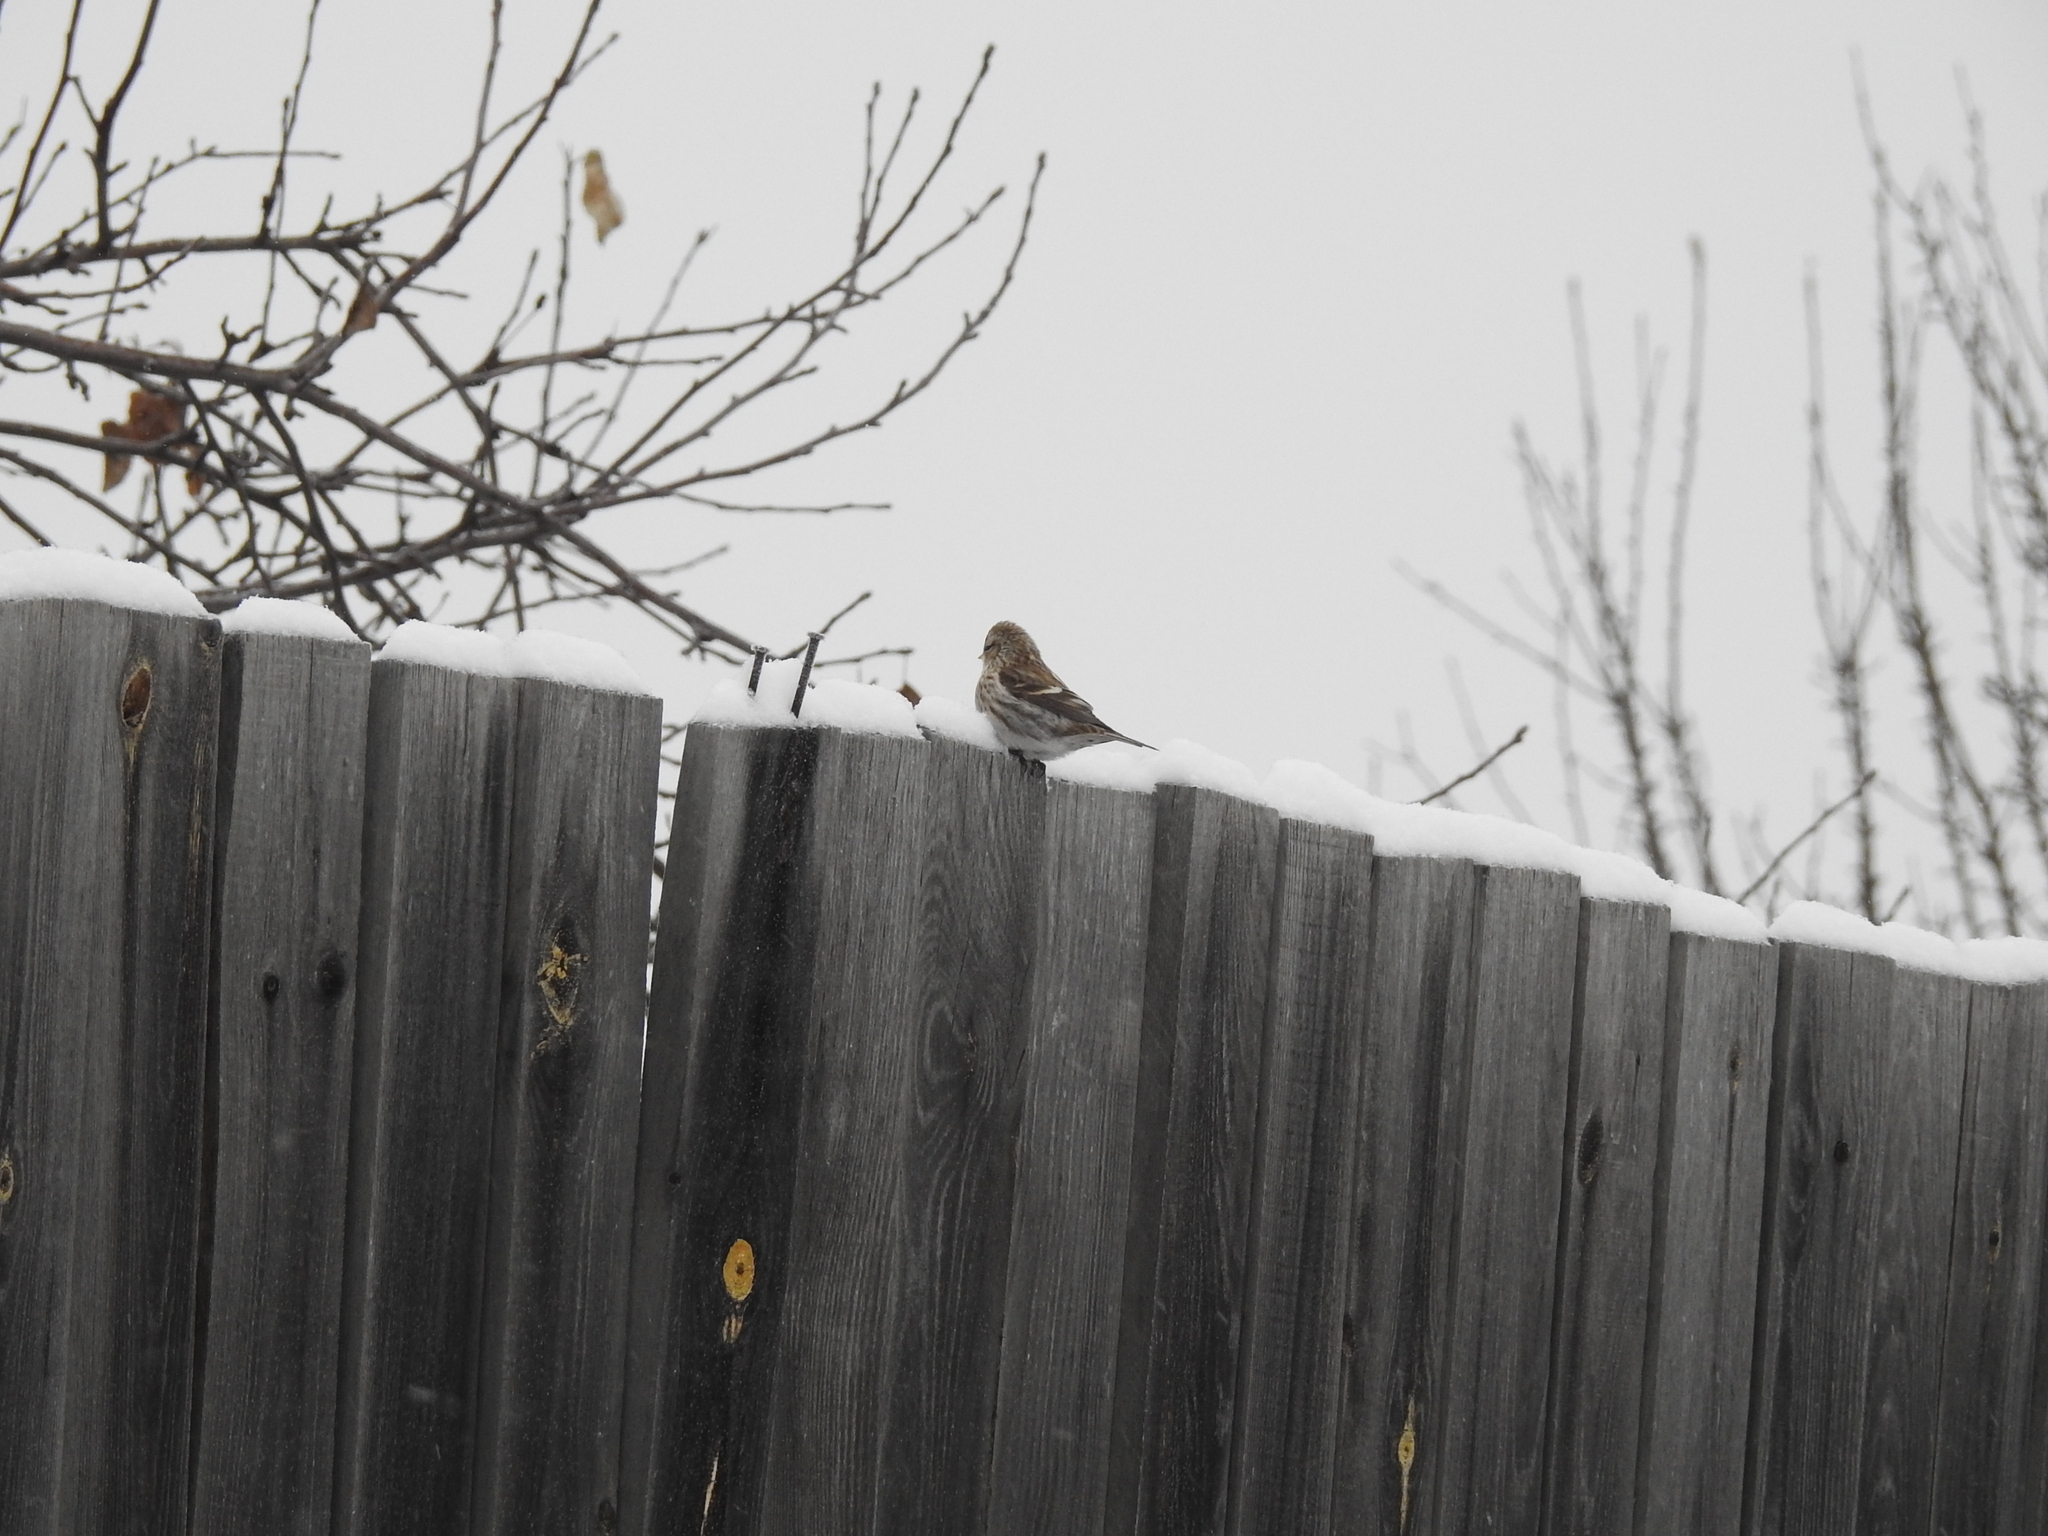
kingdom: Animalia
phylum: Chordata
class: Aves
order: Passeriformes
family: Fringillidae
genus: Acanthis
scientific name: Acanthis flammea
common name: Common redpoll
